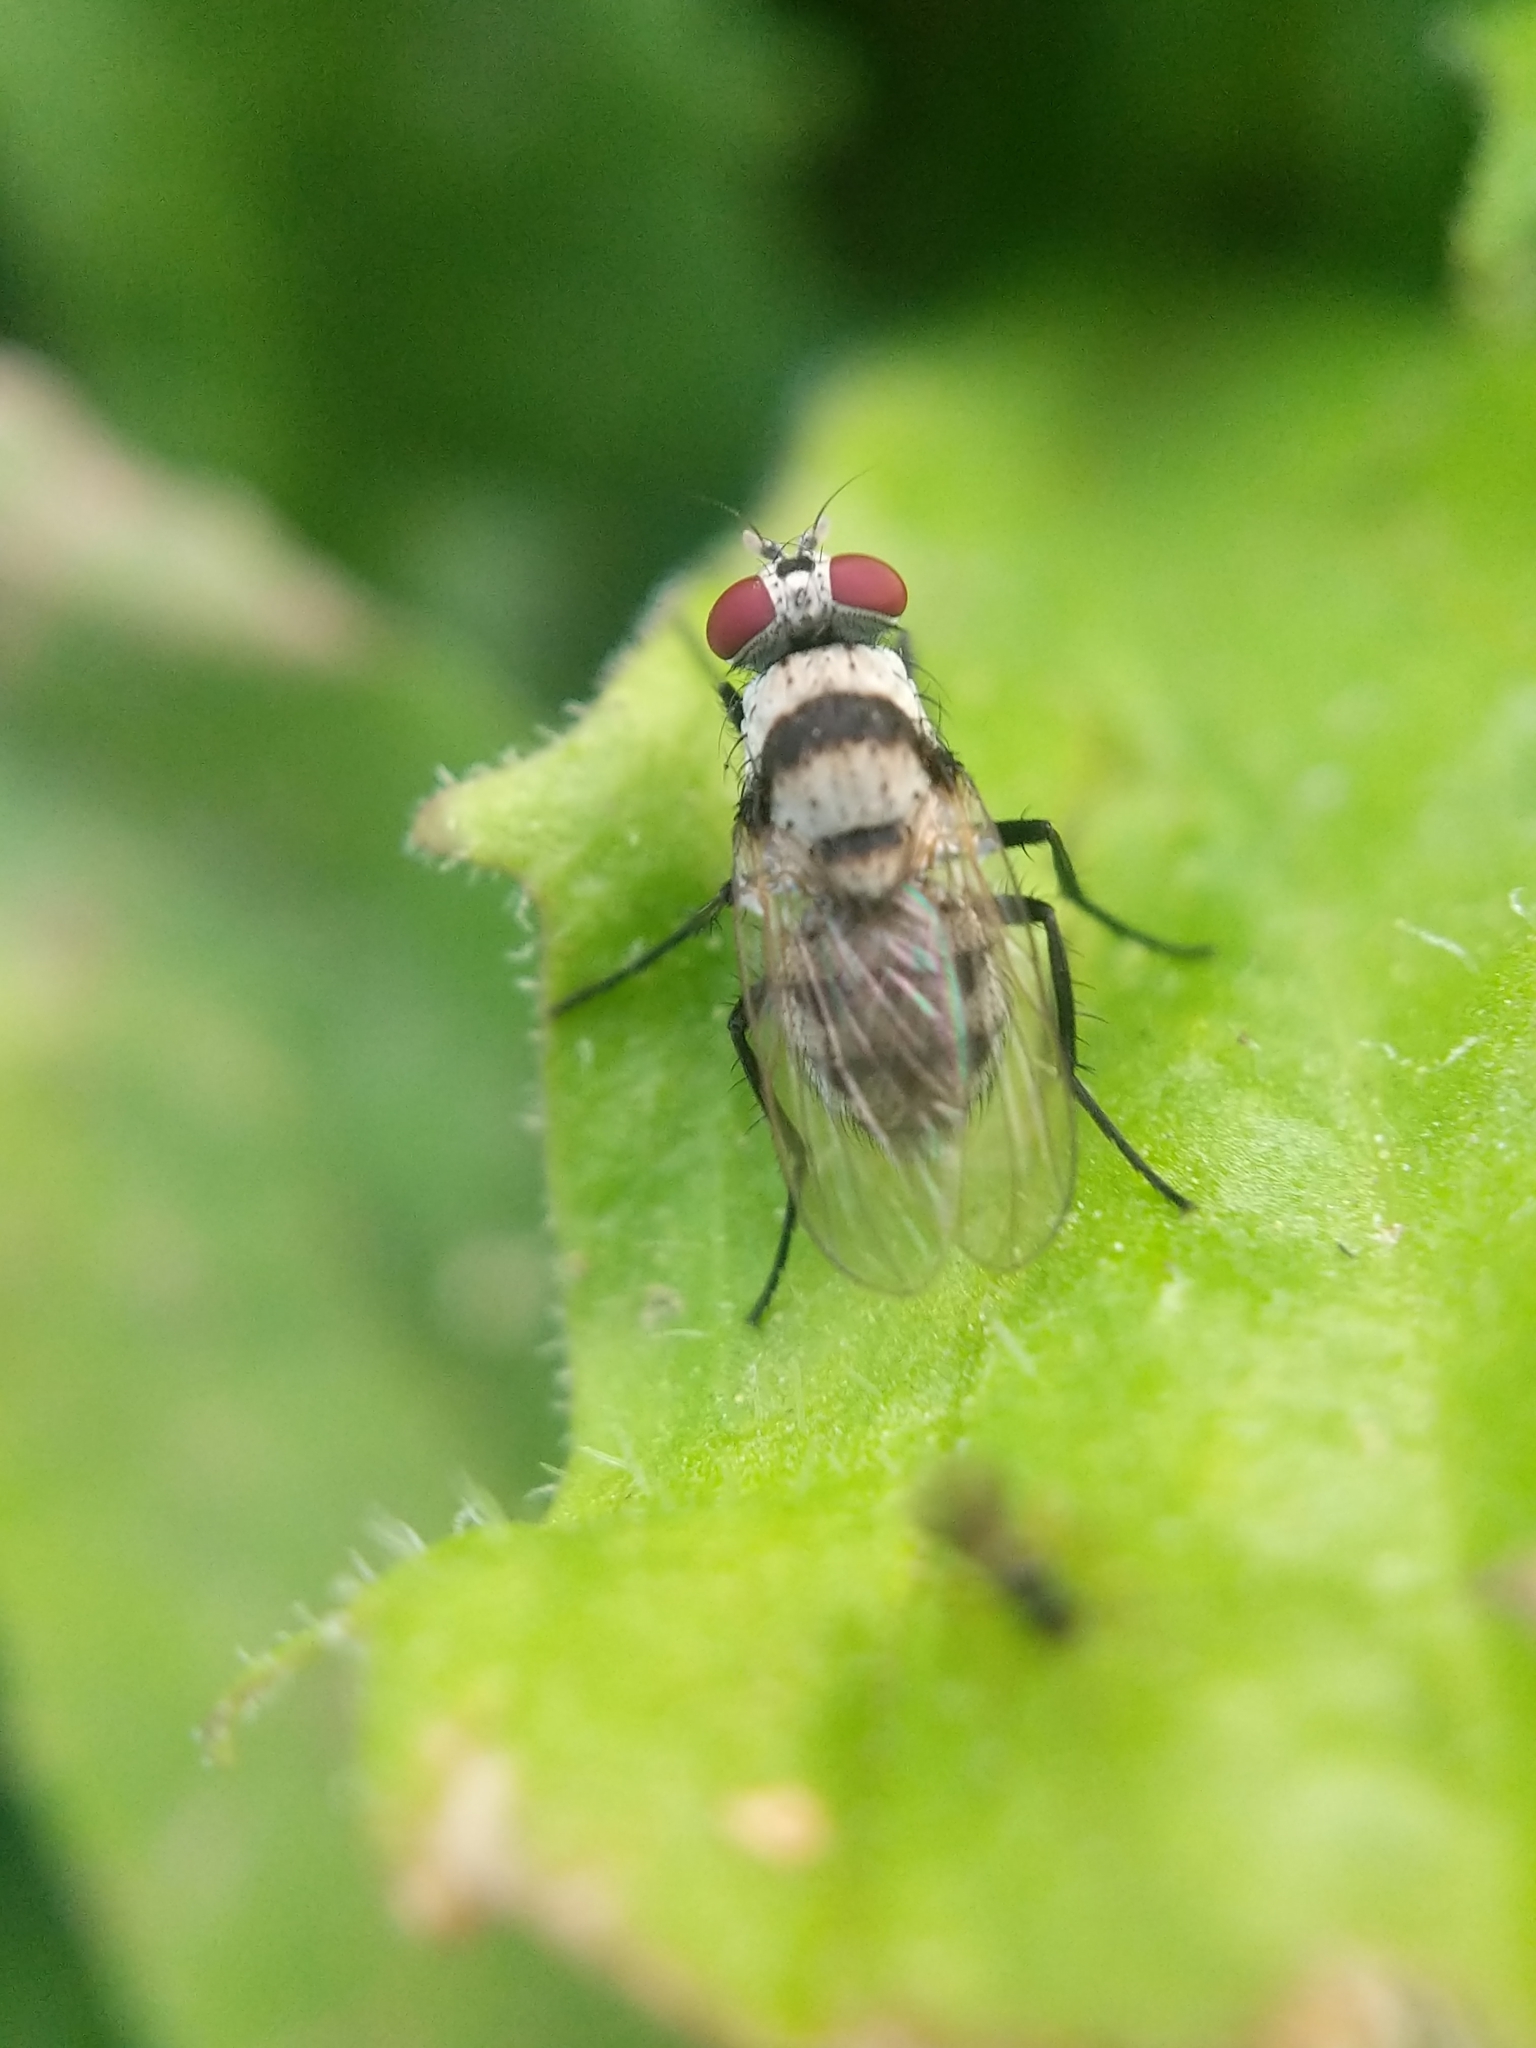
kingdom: Animalia
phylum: Arthropoda
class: Insecta
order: Diptera
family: Anthomyiidae
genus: Anthomyia
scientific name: Anthomyia illocata
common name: Fly
